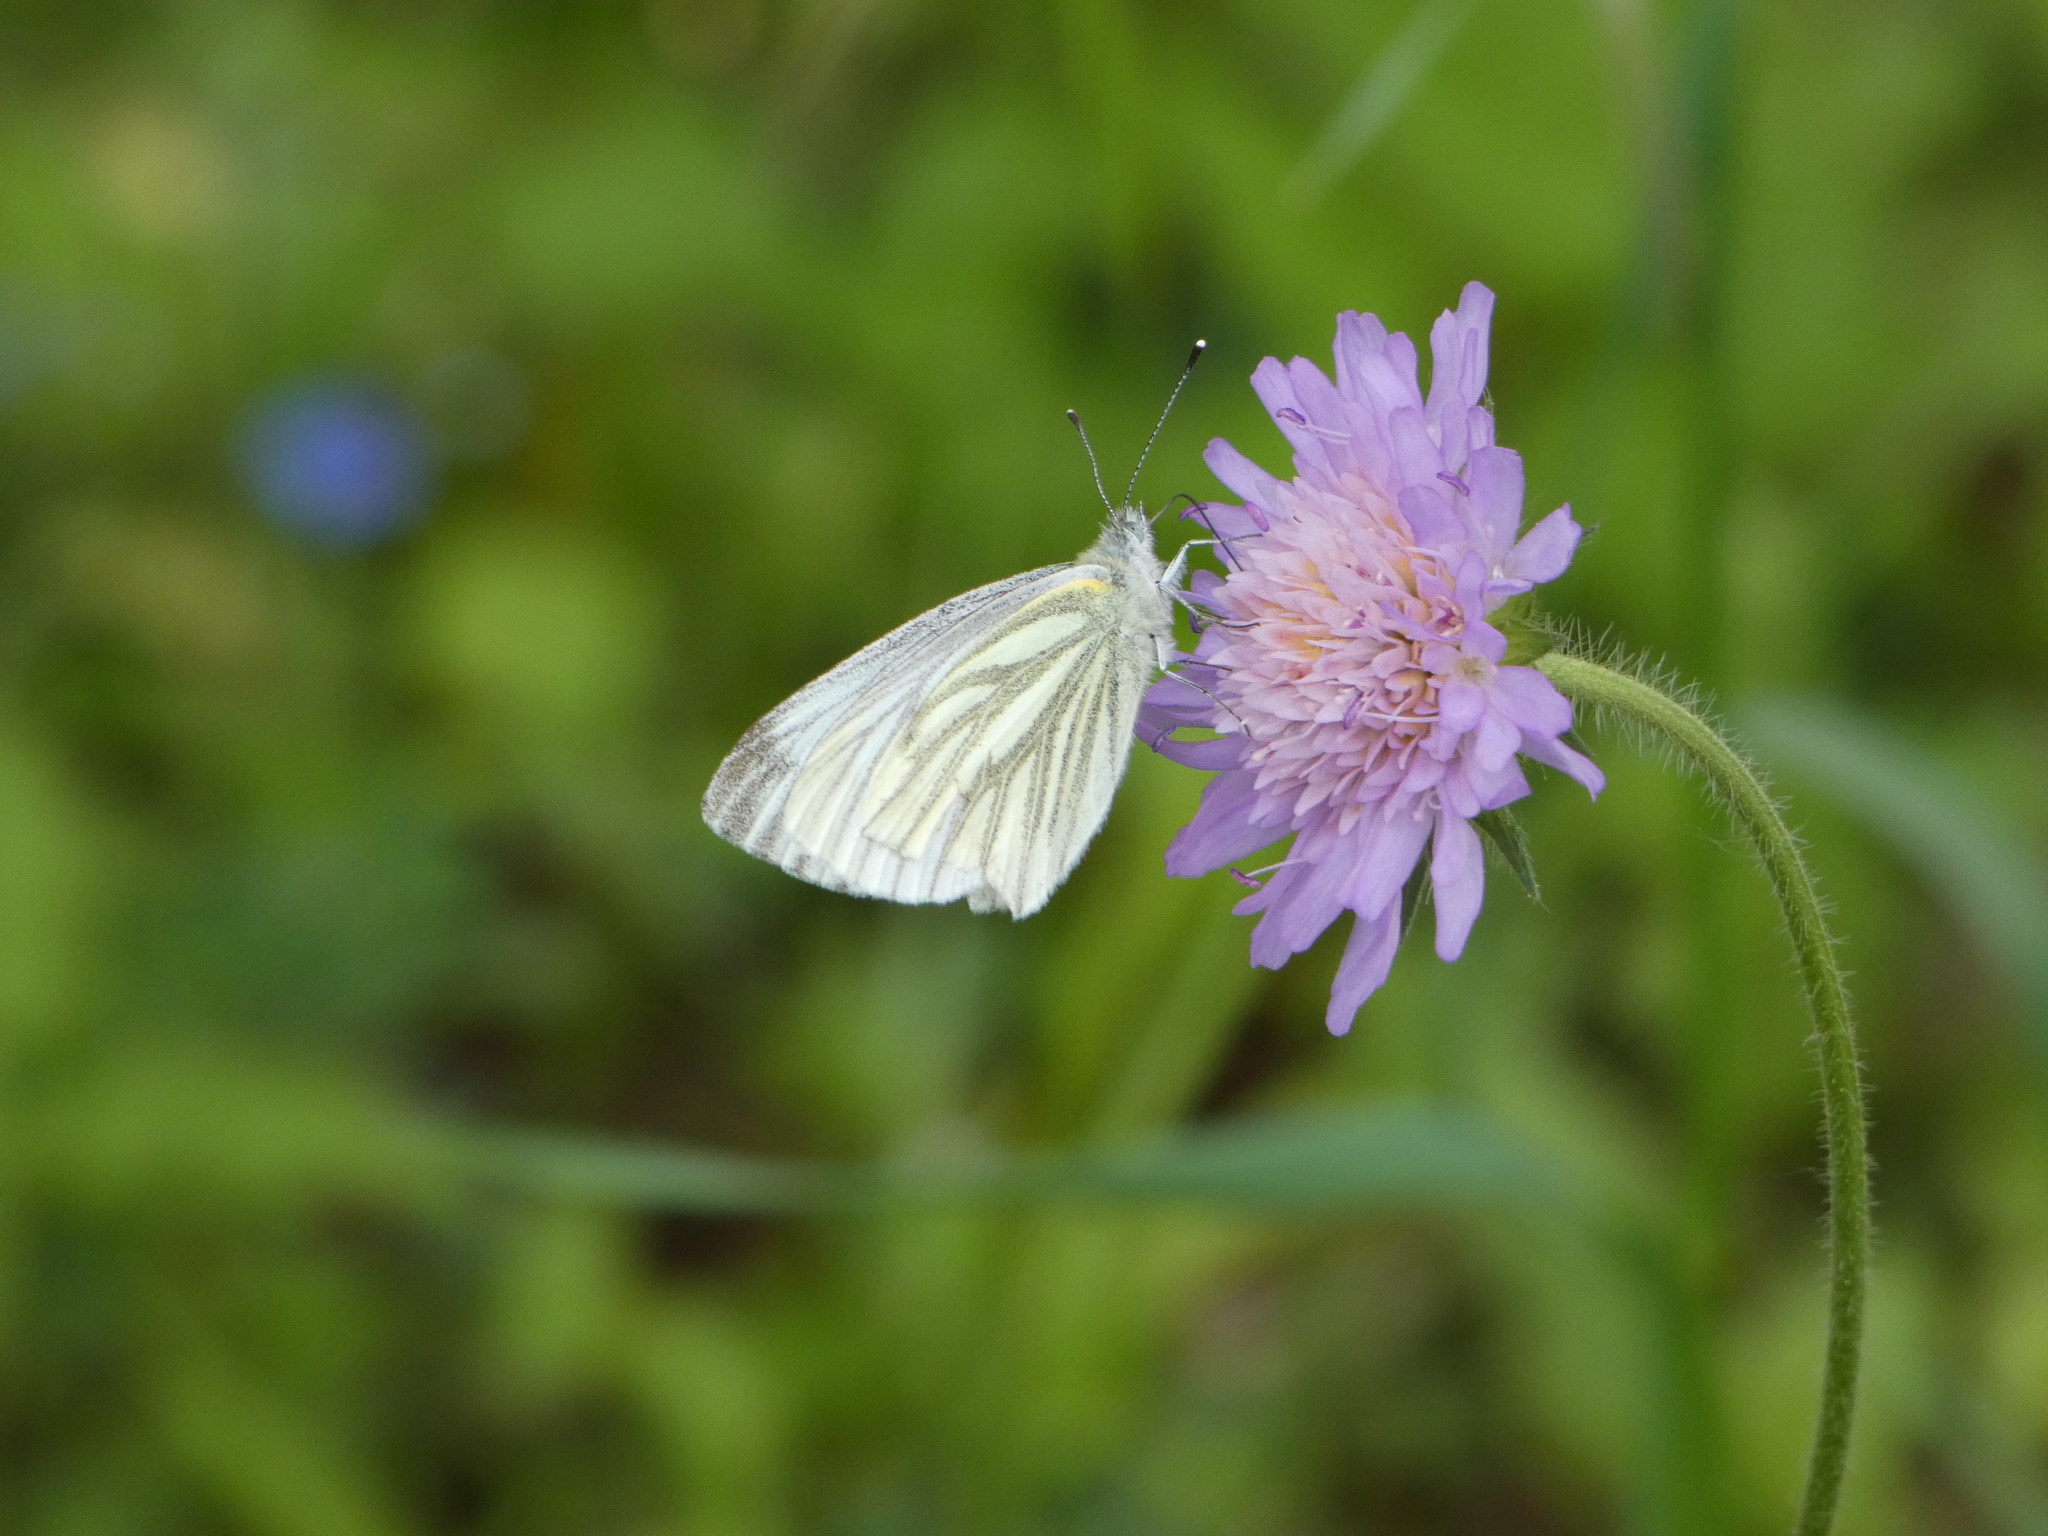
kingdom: Animalia
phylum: Arthropoda
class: Insecta
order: Lepidoptera
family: Pieridae
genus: Pieris
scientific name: Pieris napi
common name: Green-veined white
